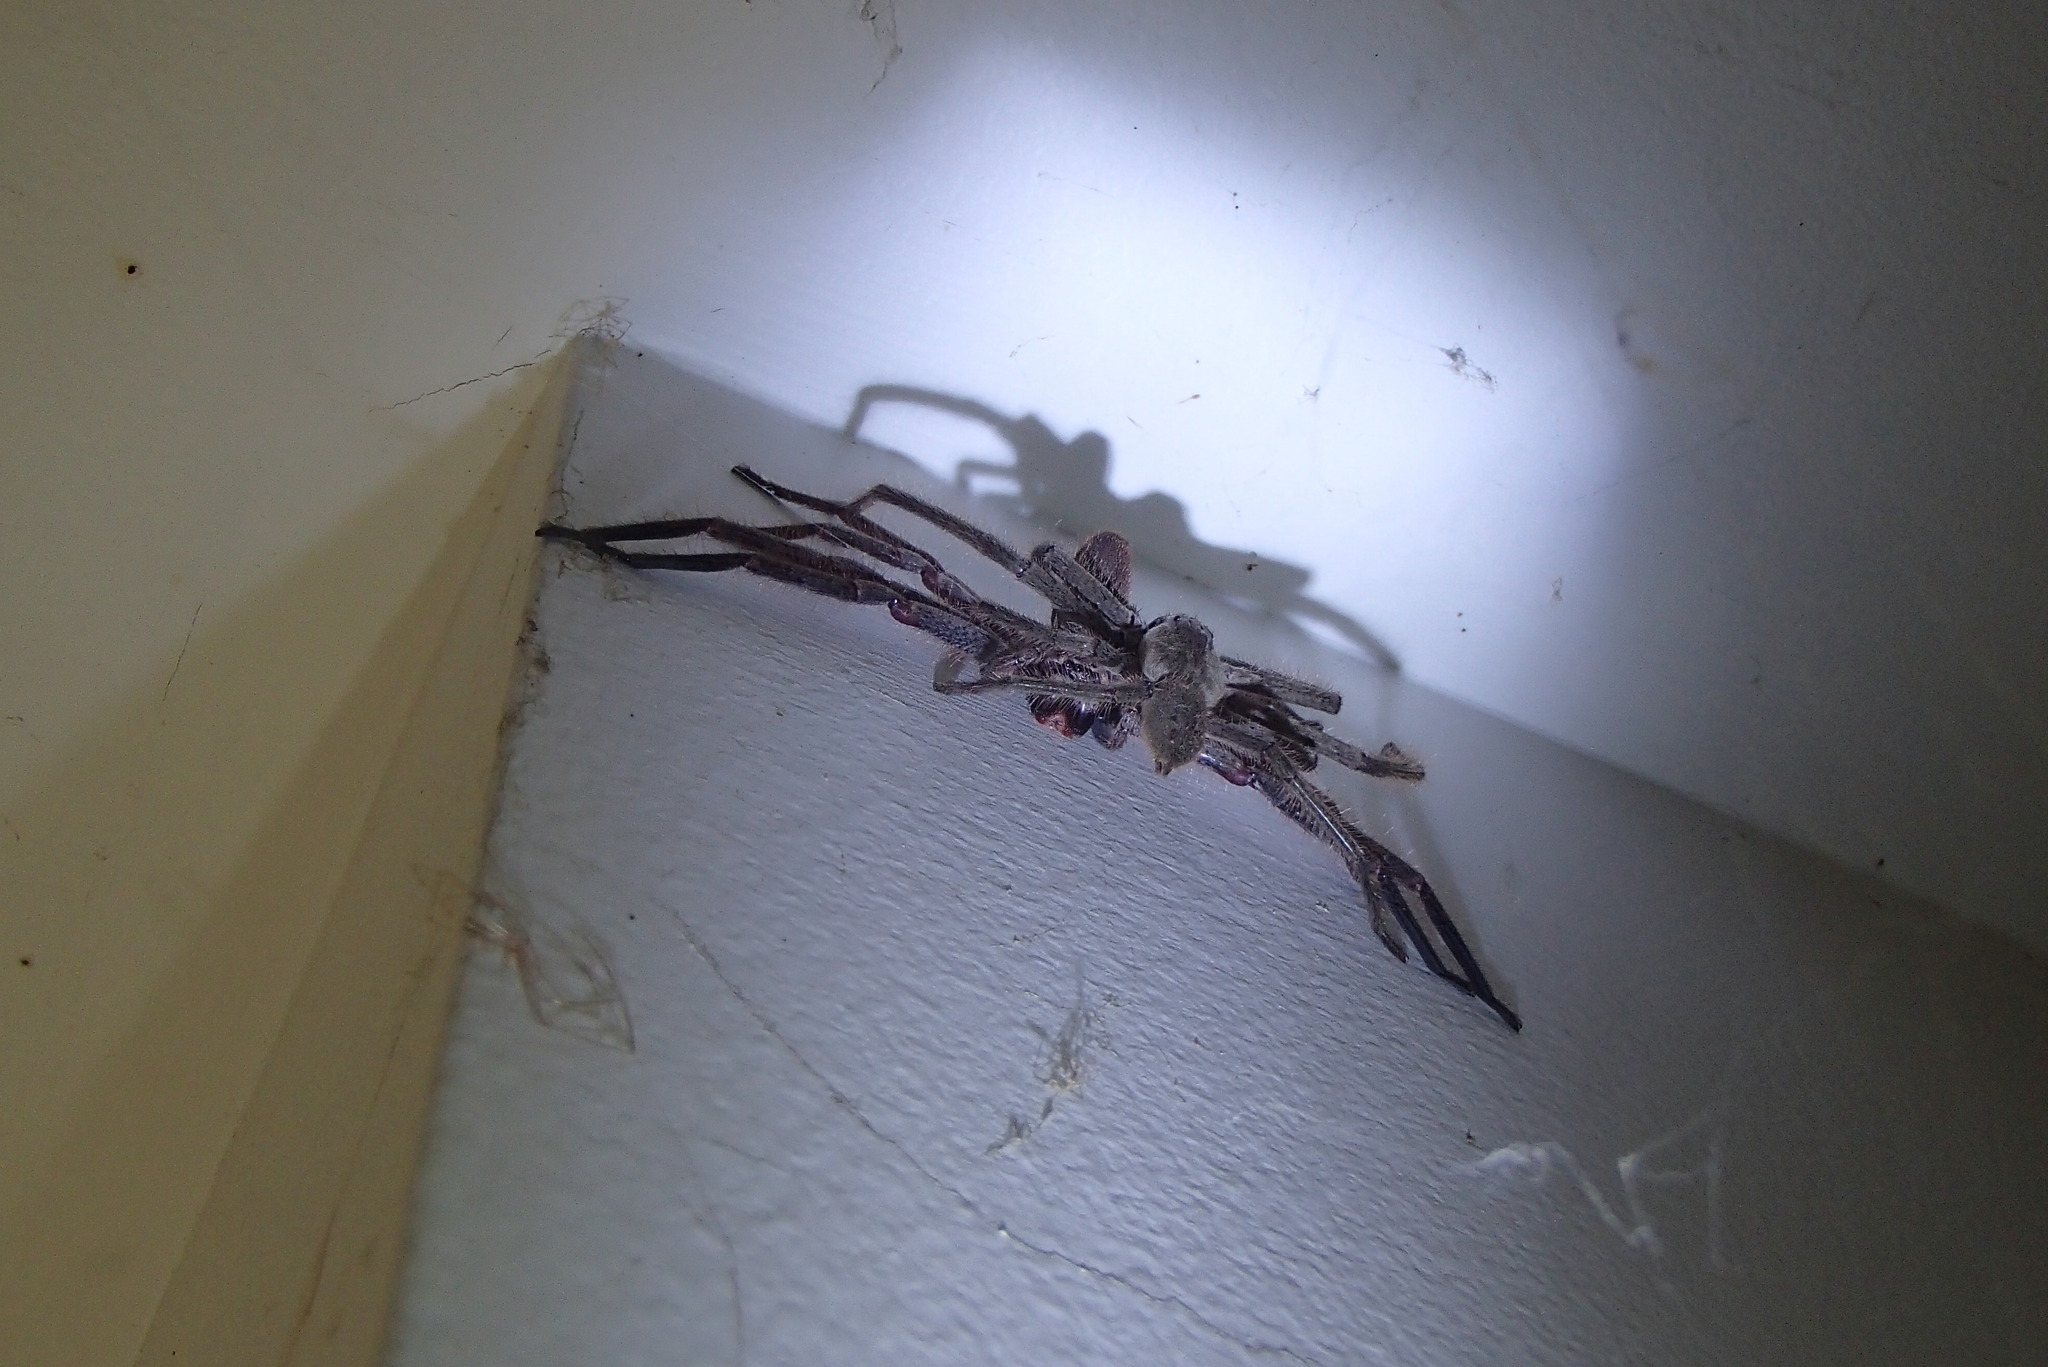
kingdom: Animalia
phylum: Arthropoda
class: Arachnida
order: Araneae
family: Sparassidae
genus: Isopeda
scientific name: Isopeda villosa
